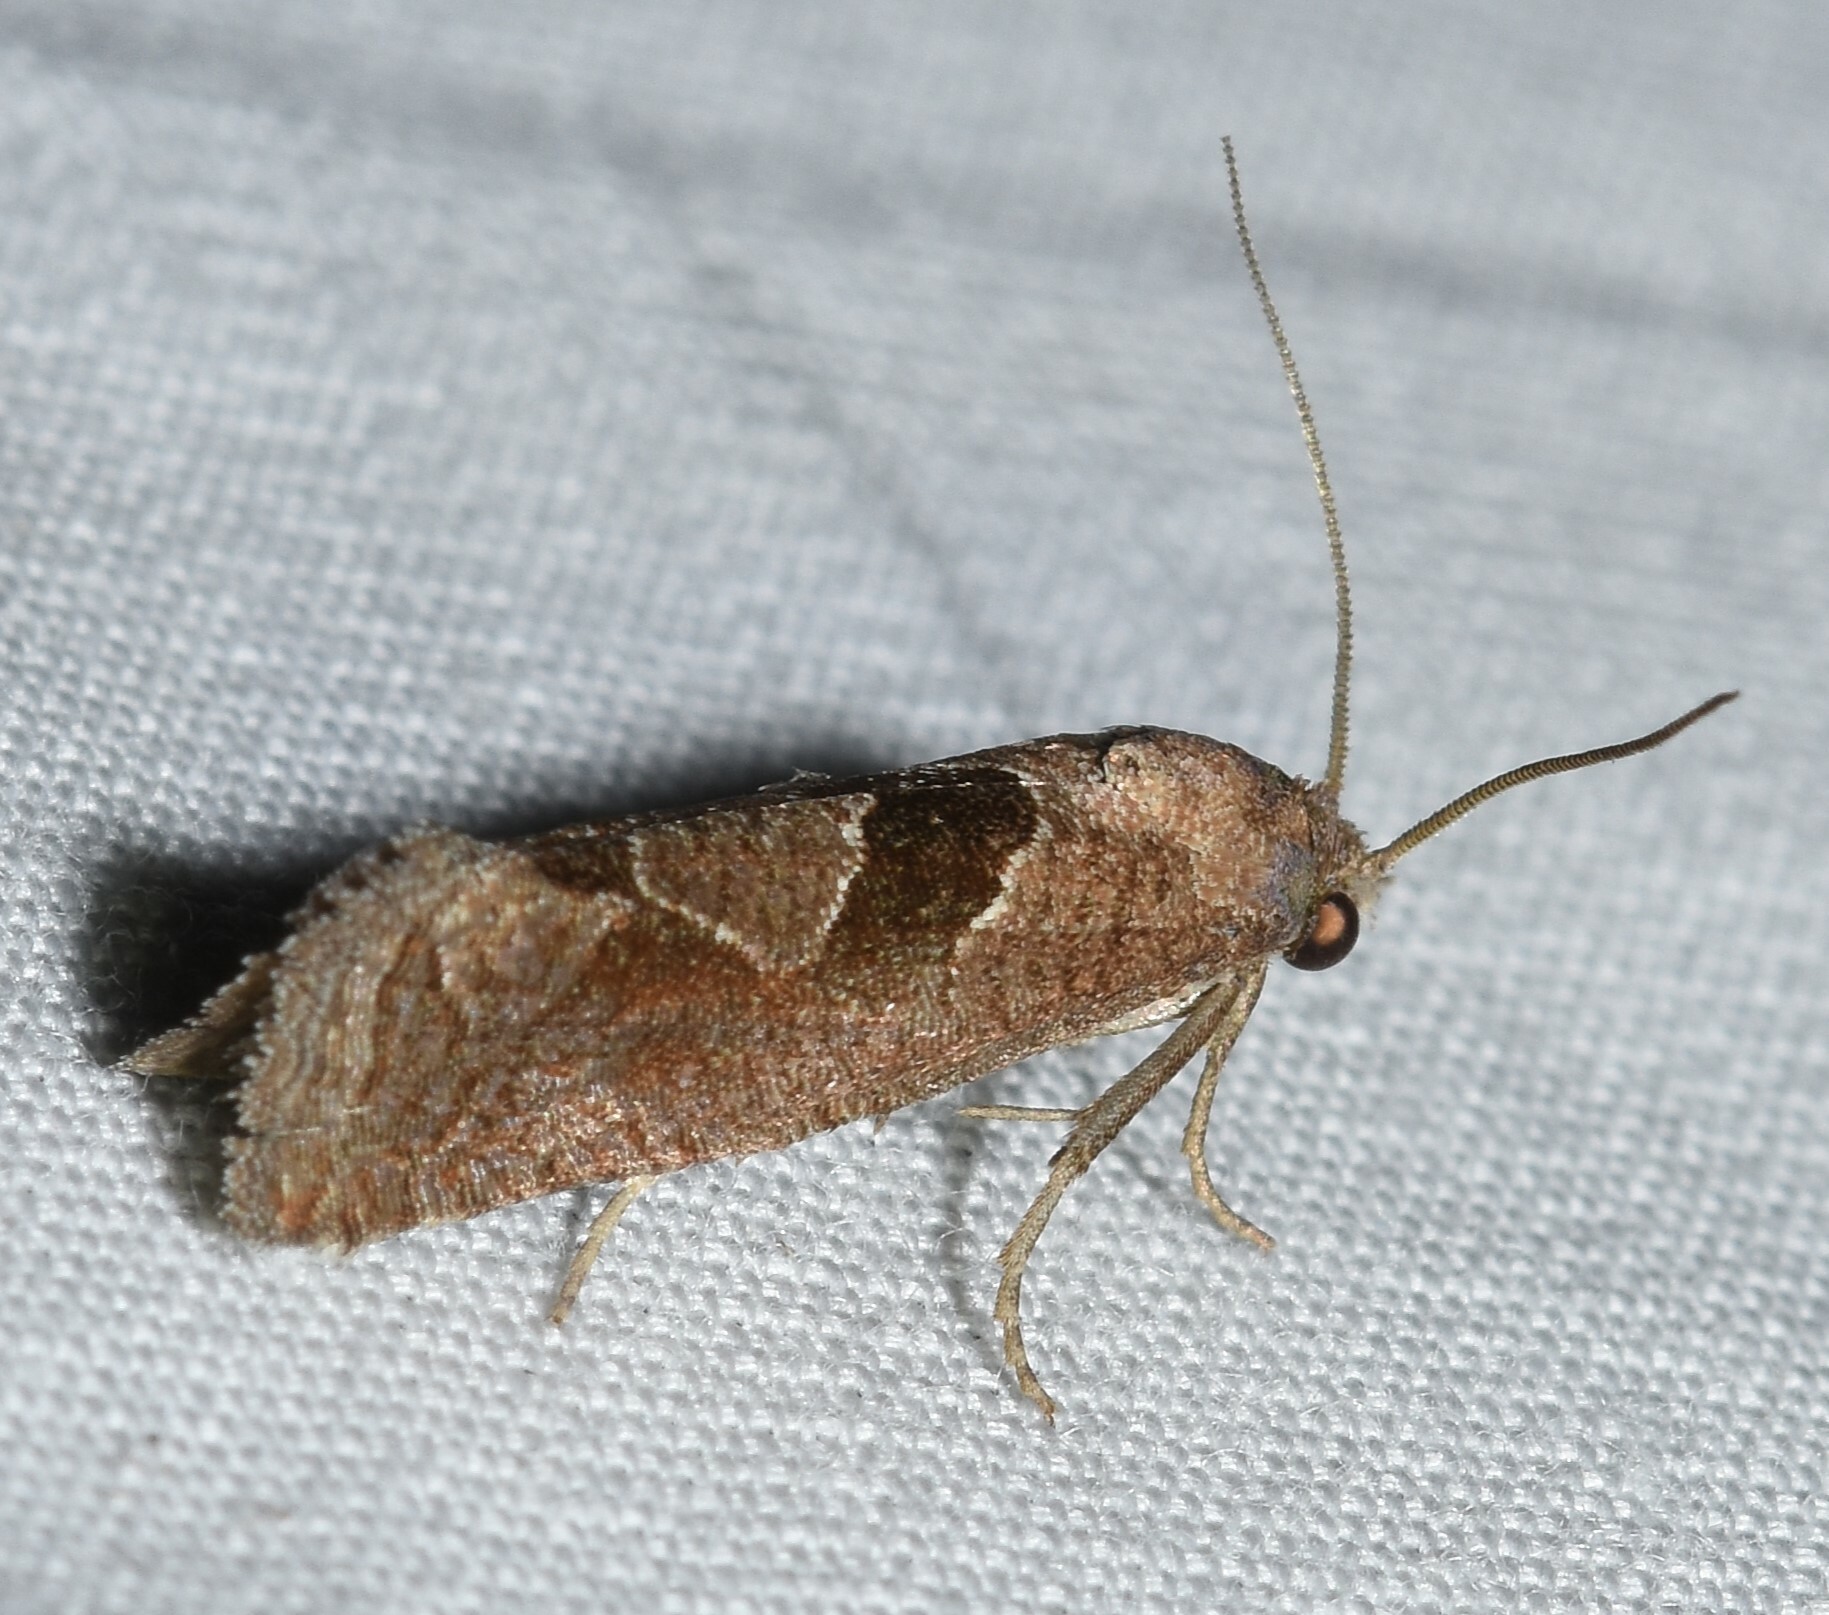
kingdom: Animalia
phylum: Arthropoda
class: Insecta
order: Lepidoptera
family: Tortricidae
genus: Pelochrista
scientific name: Pelochrista similiana
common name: Similar eucosma
